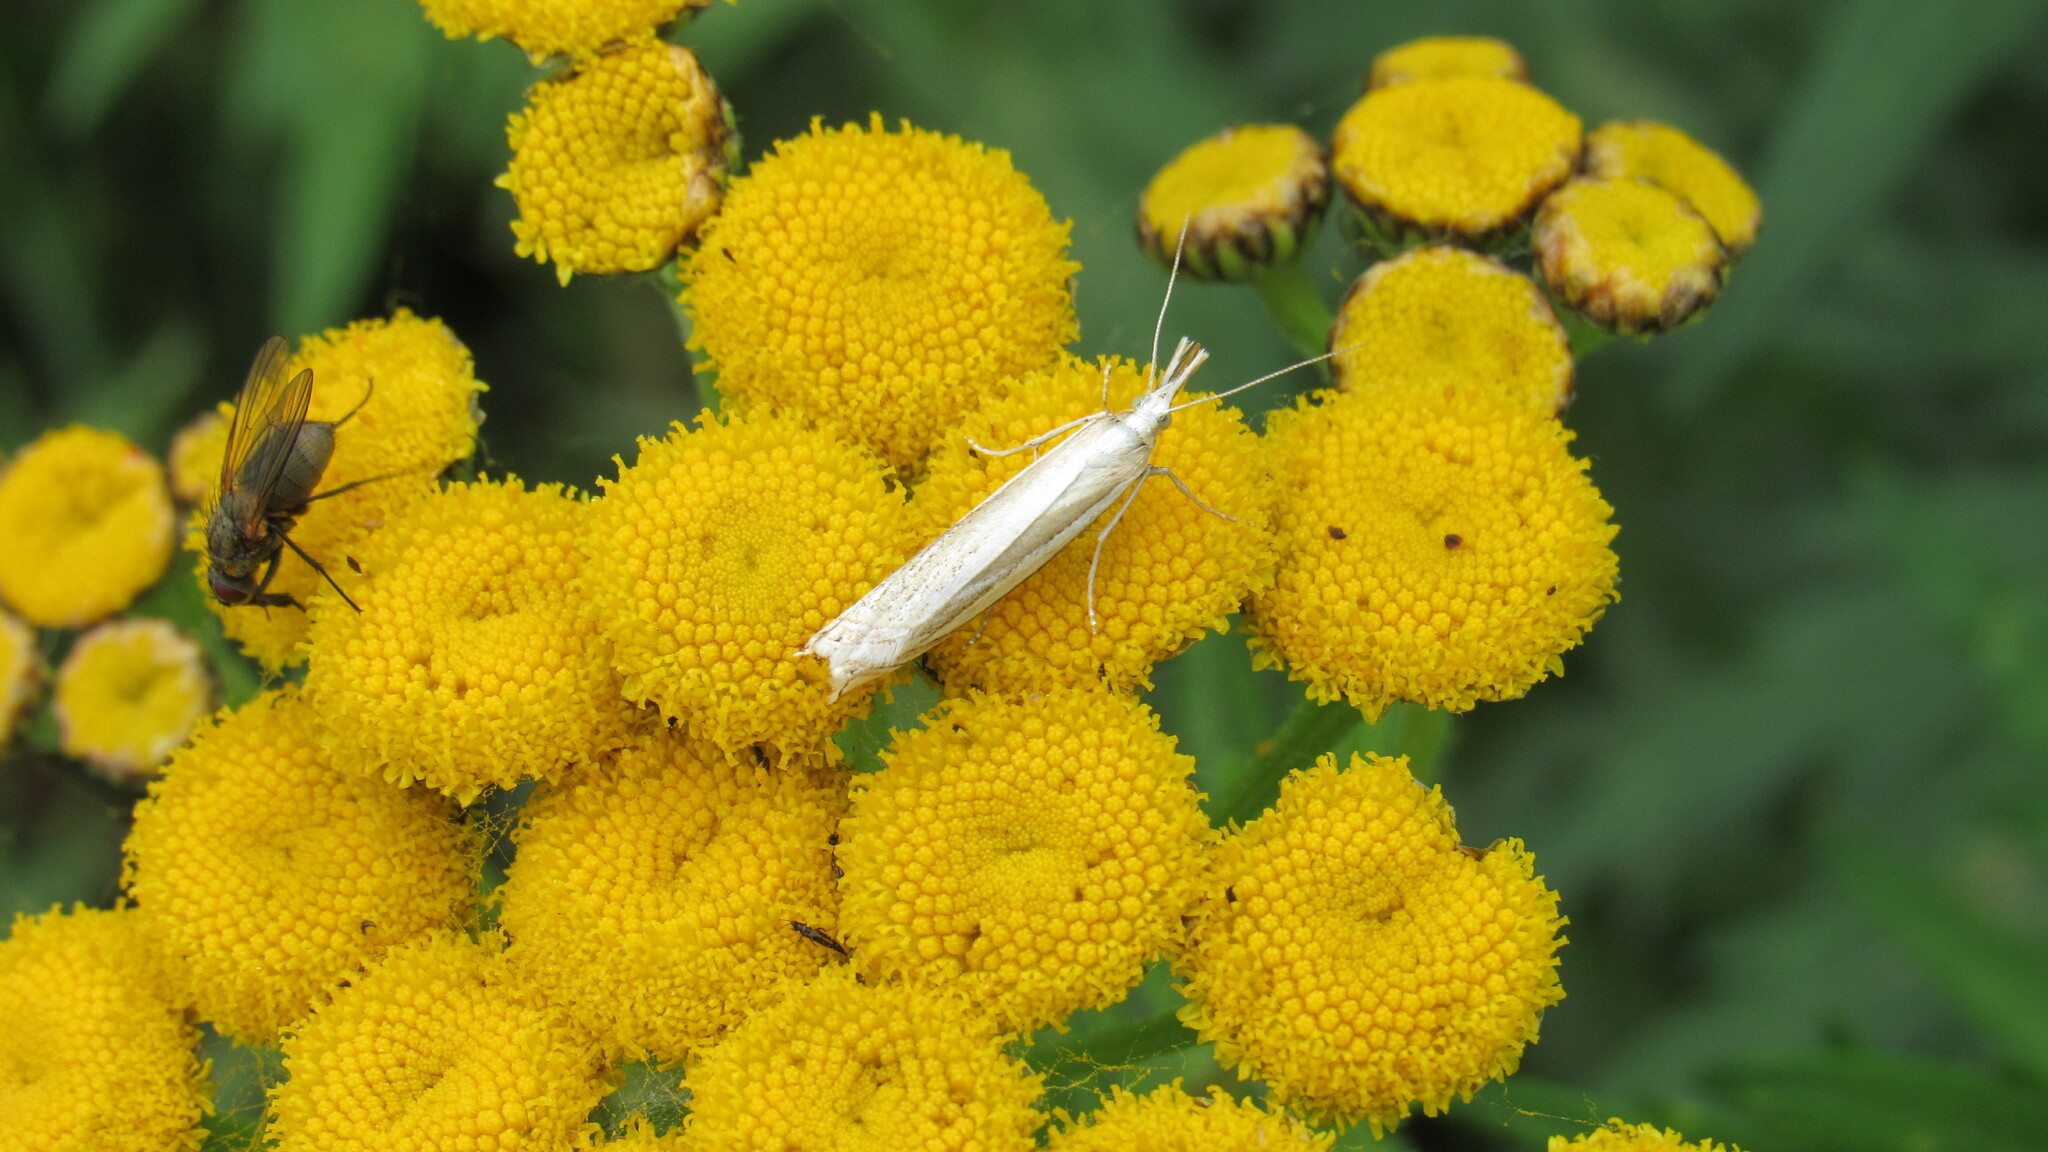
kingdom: Animalia
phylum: Arthropoda
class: Insecta
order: Lepidoptera
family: Crambidae
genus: Crambus
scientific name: Crambus perlellus
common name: Yellow satin veneer
